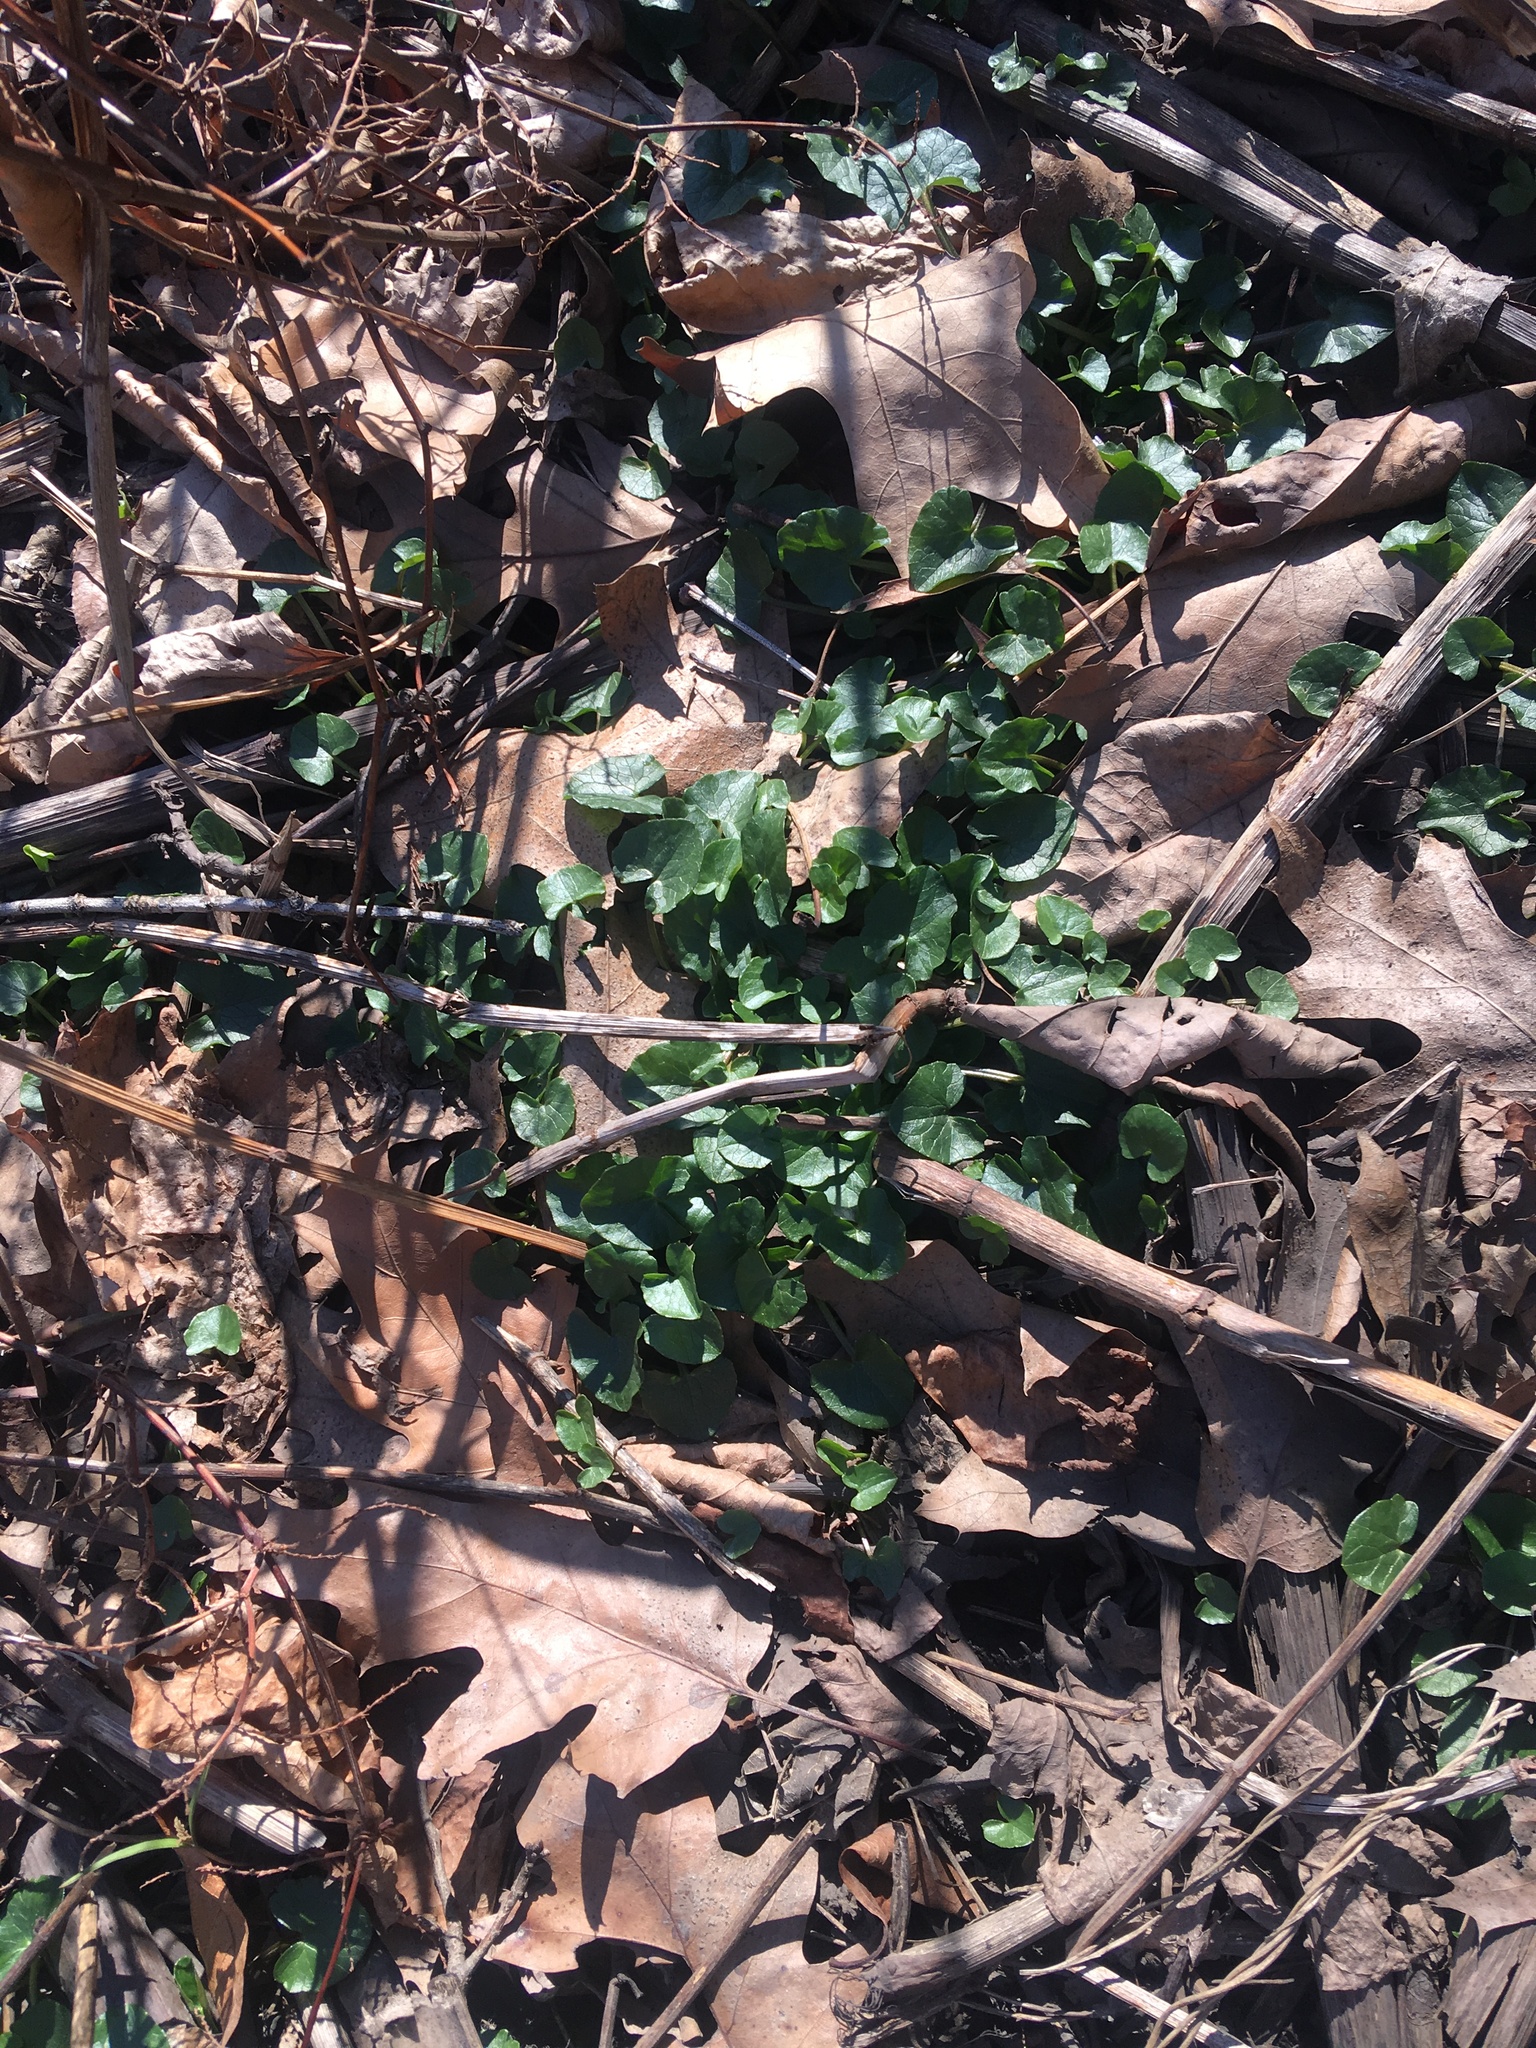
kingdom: Plantae
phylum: Tracheophyta
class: Magnoliopsida
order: Ranunculales
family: Ranunculaceae
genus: Ficaria
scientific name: Ficaria verna
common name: Lesser celandine
